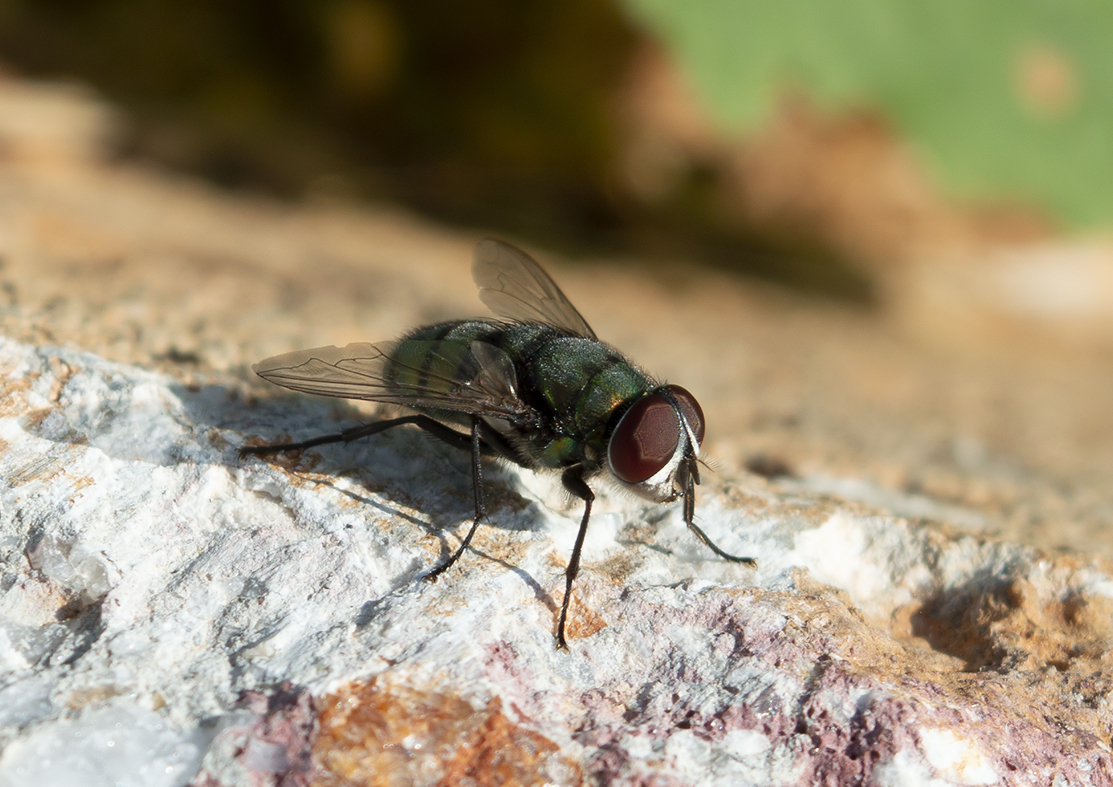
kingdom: Animalia
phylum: Arthropoda
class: Insecta
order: Diptera
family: Calliphoridae
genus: Chrysomya
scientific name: Chrysomya albiceps
